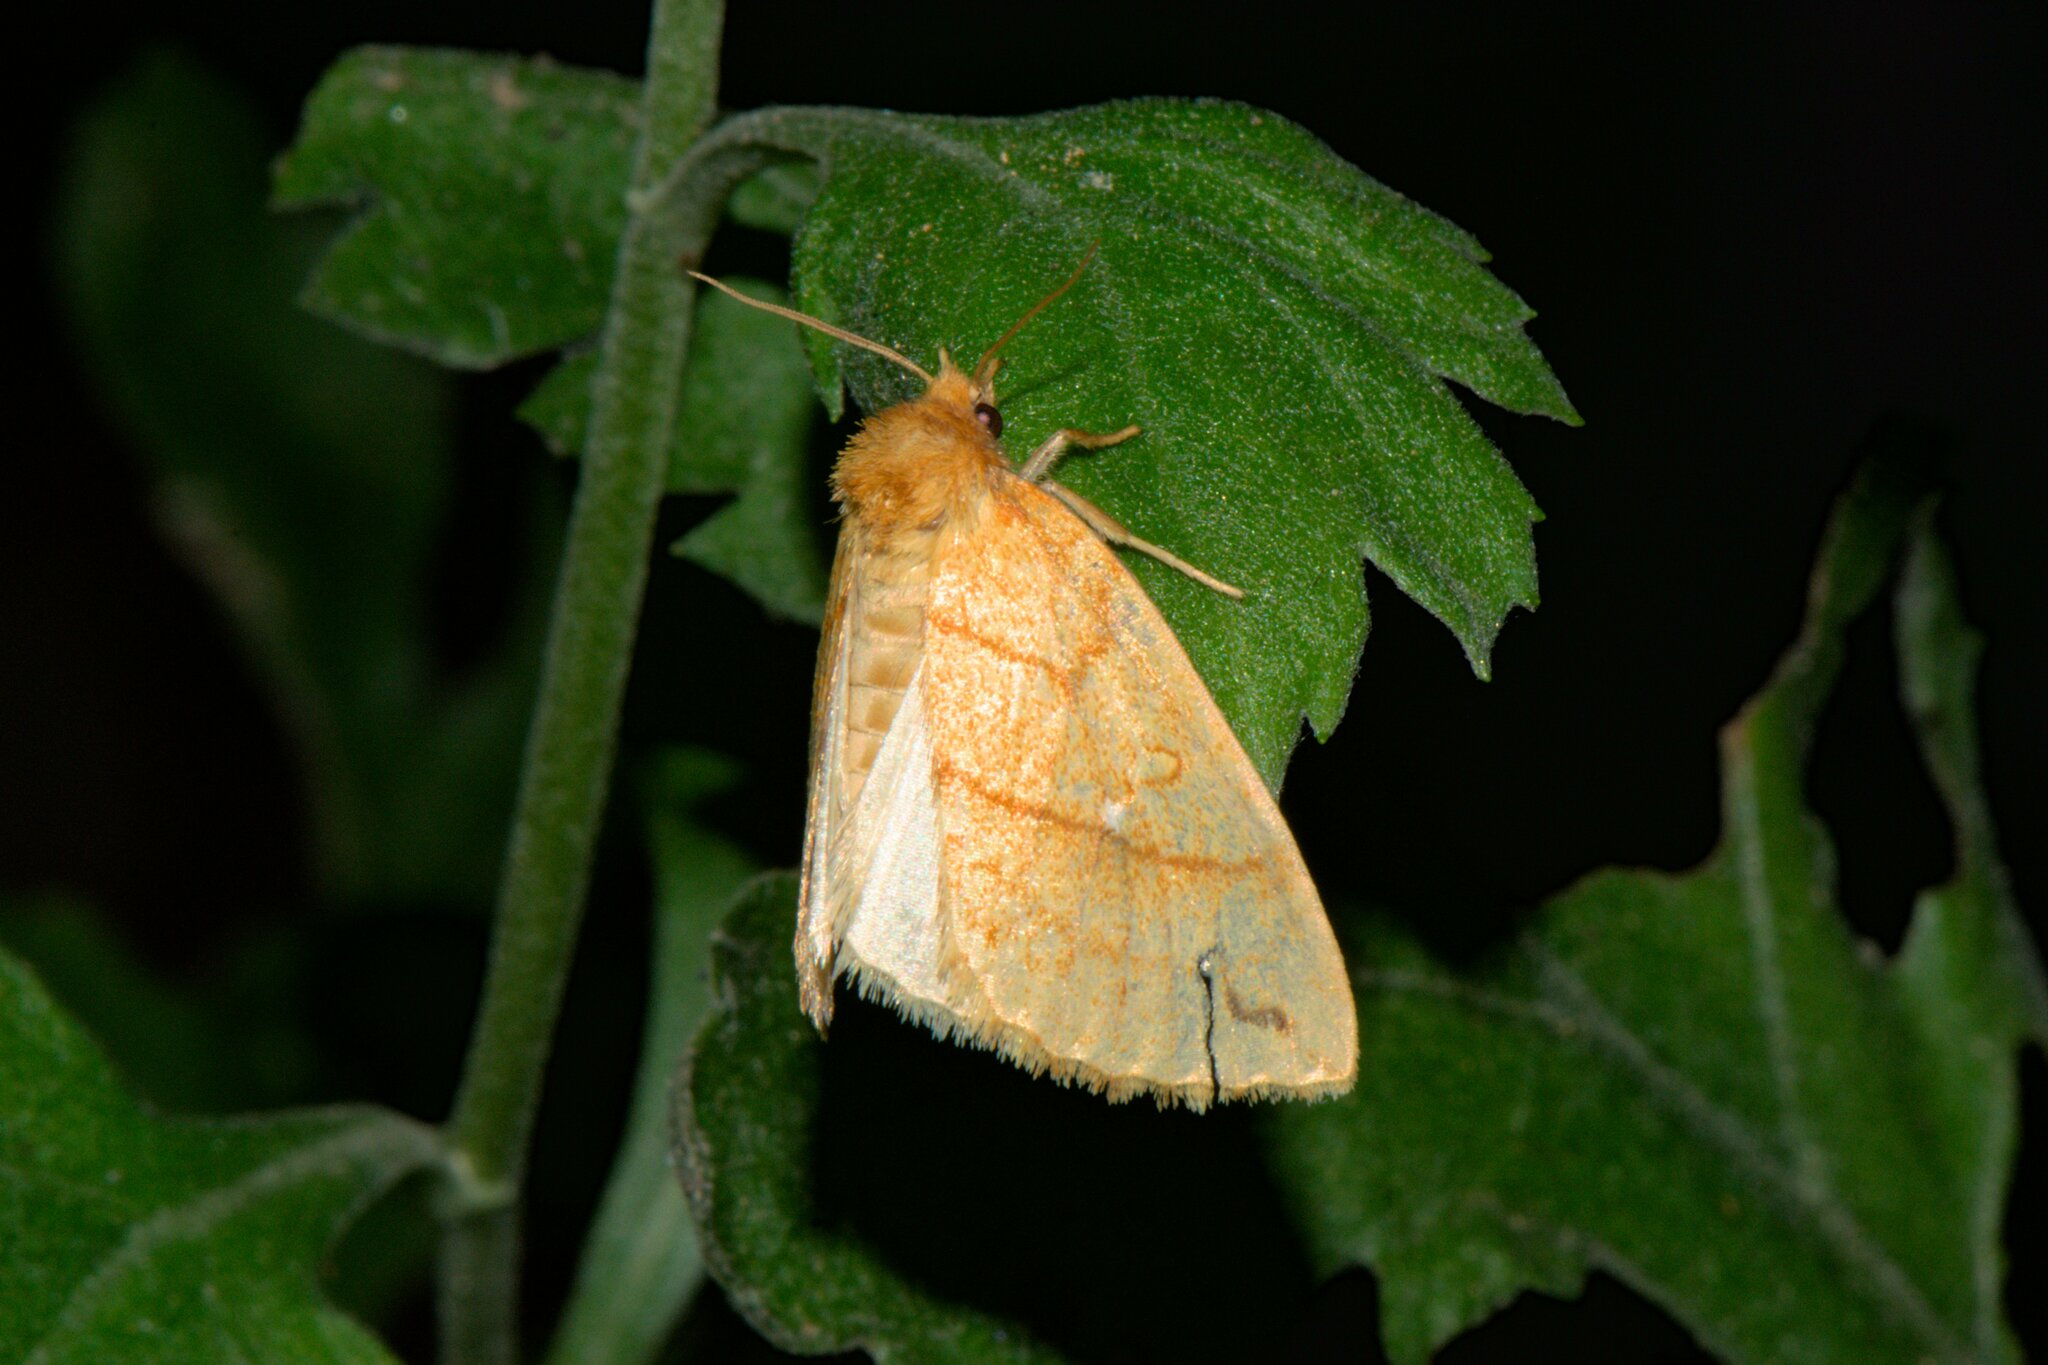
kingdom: Animalia
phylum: Arthropoda
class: Insecta
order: Lepidoptera
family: Noctuidae
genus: Xanthia
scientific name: Xanthia rectilineata
